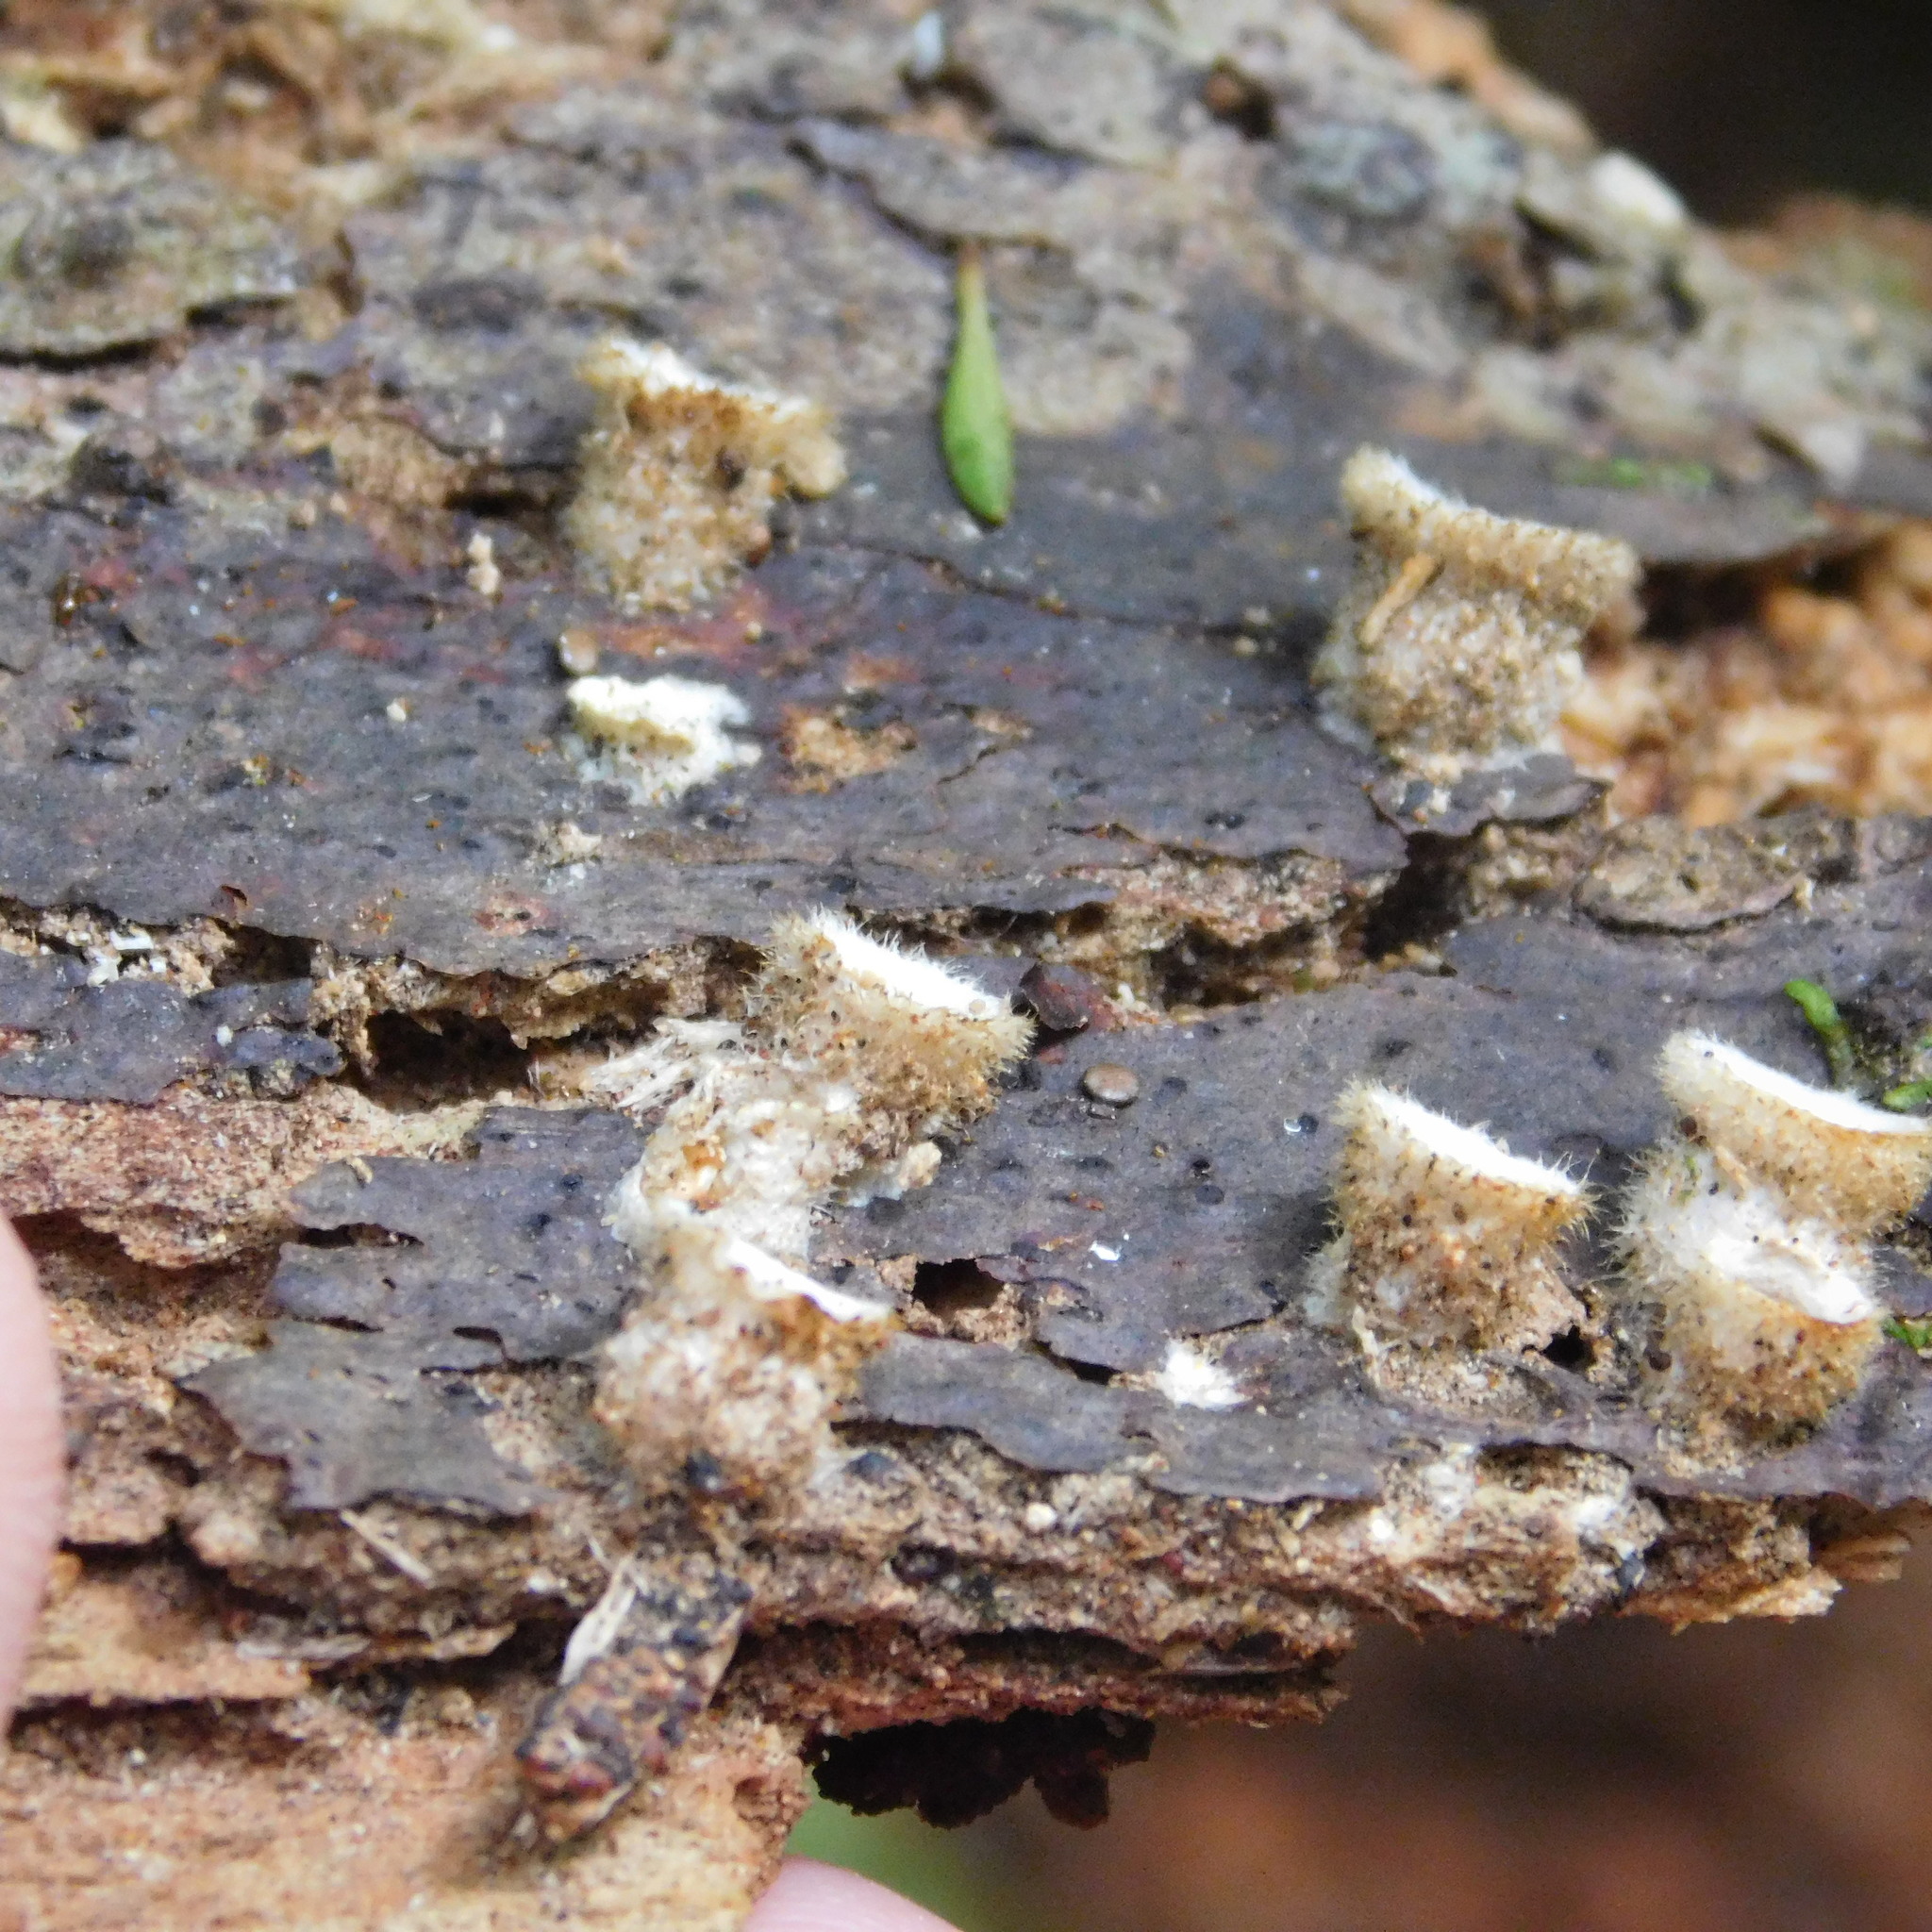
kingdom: Fungi
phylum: Basidiomycota
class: Agaricomycetes
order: Agaricales
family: Agaricaceae
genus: Nidula
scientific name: Nidula niveotomentosa
